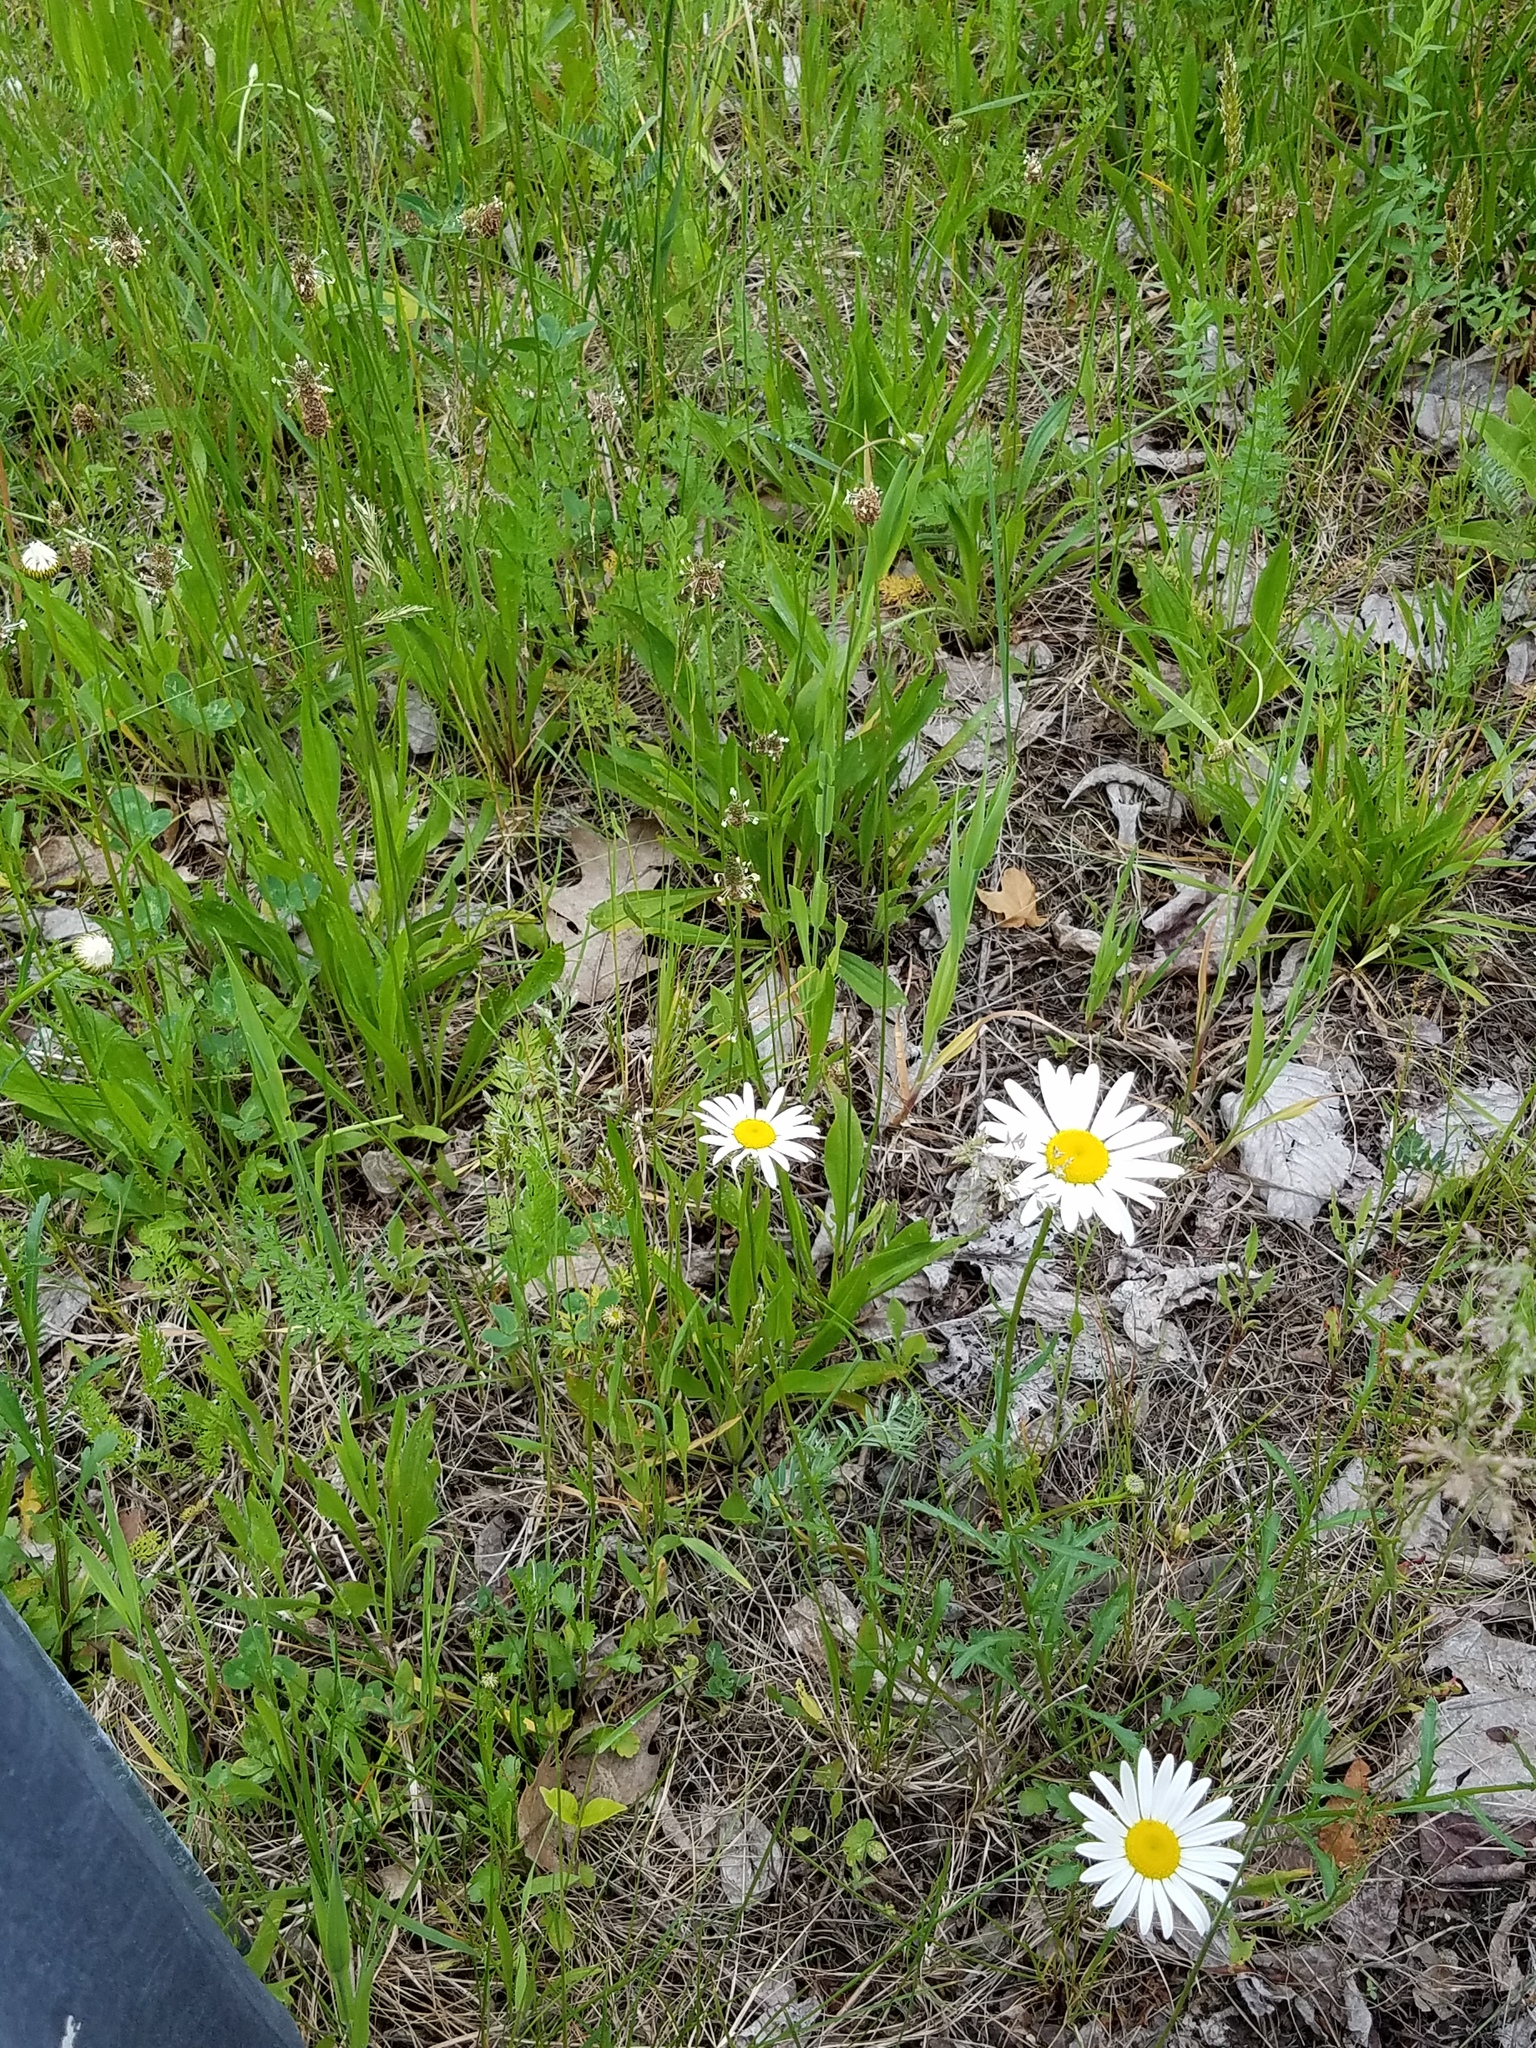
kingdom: Plantae
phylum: Tracheophyta
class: Magnoliopsida
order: Asterales
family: Asteraceae
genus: Leucanthemum
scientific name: Leucanthemum vulgare
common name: Oxeye daisy
